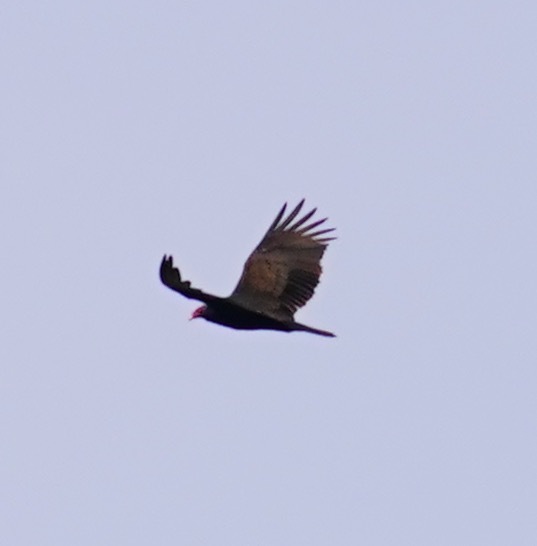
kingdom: Animalia
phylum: Chordata
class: Aves
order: Accipitriformes
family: Cathartidae
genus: Cathartes
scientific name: Cathartes aura
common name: Turkey vulture
